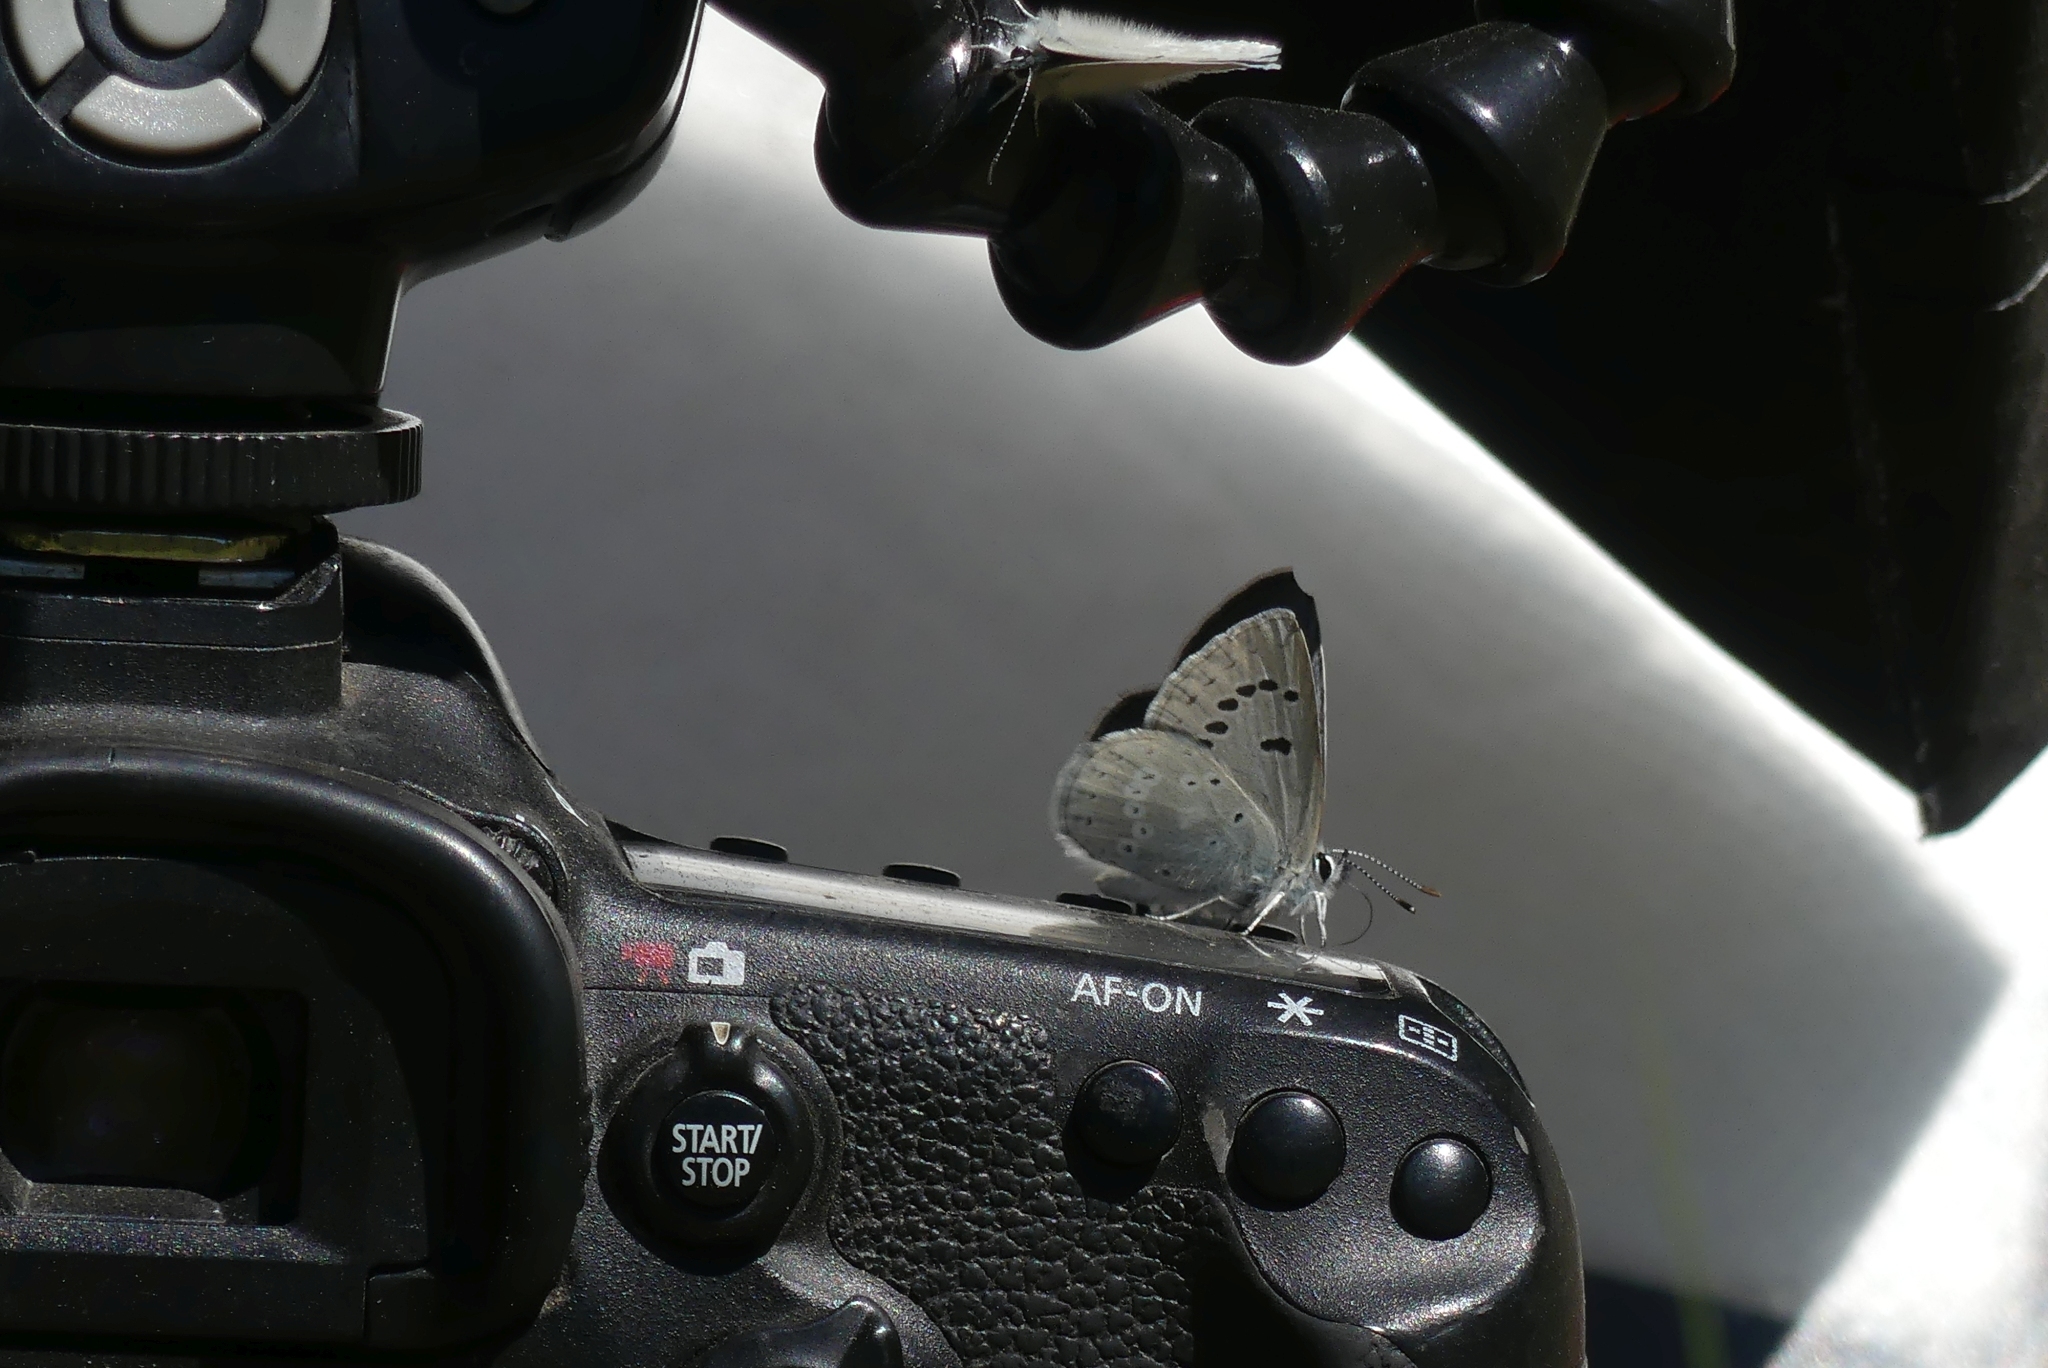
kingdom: Animalia
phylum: Arthropoda
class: Insecta
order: Lepidoptera
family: Lycaenidae
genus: Icaricia
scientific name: Icaricia icarioides
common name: Boisduval's blue
